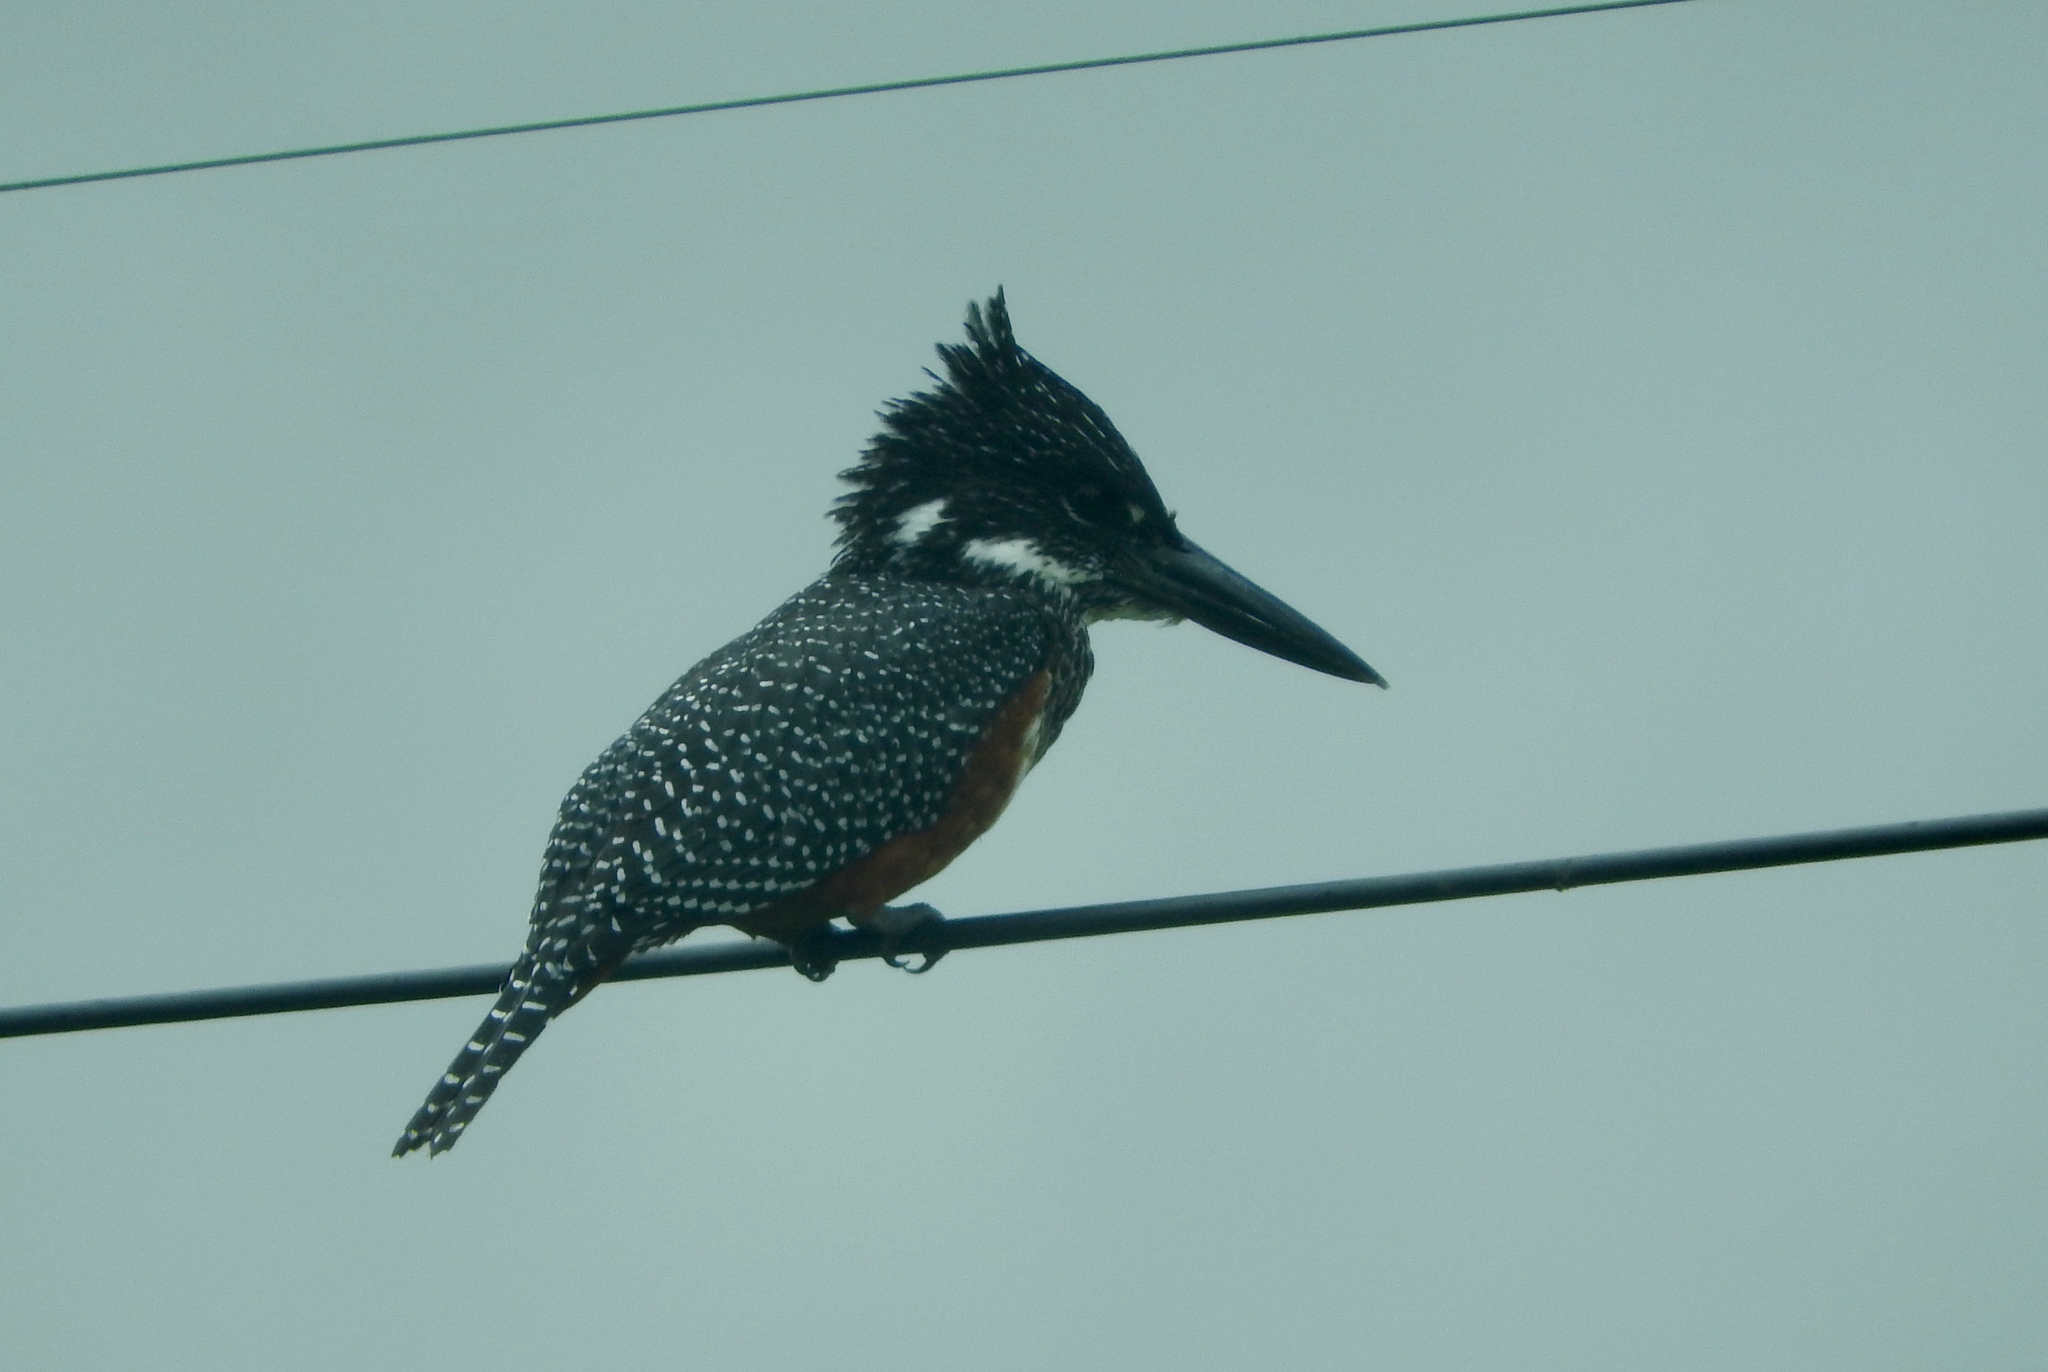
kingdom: Animalia
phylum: Chordata
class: Aves
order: Coraciiformes
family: Alcedinidae
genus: Megaceryle
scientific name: Megaceryle maxima
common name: Giant kingfisher
